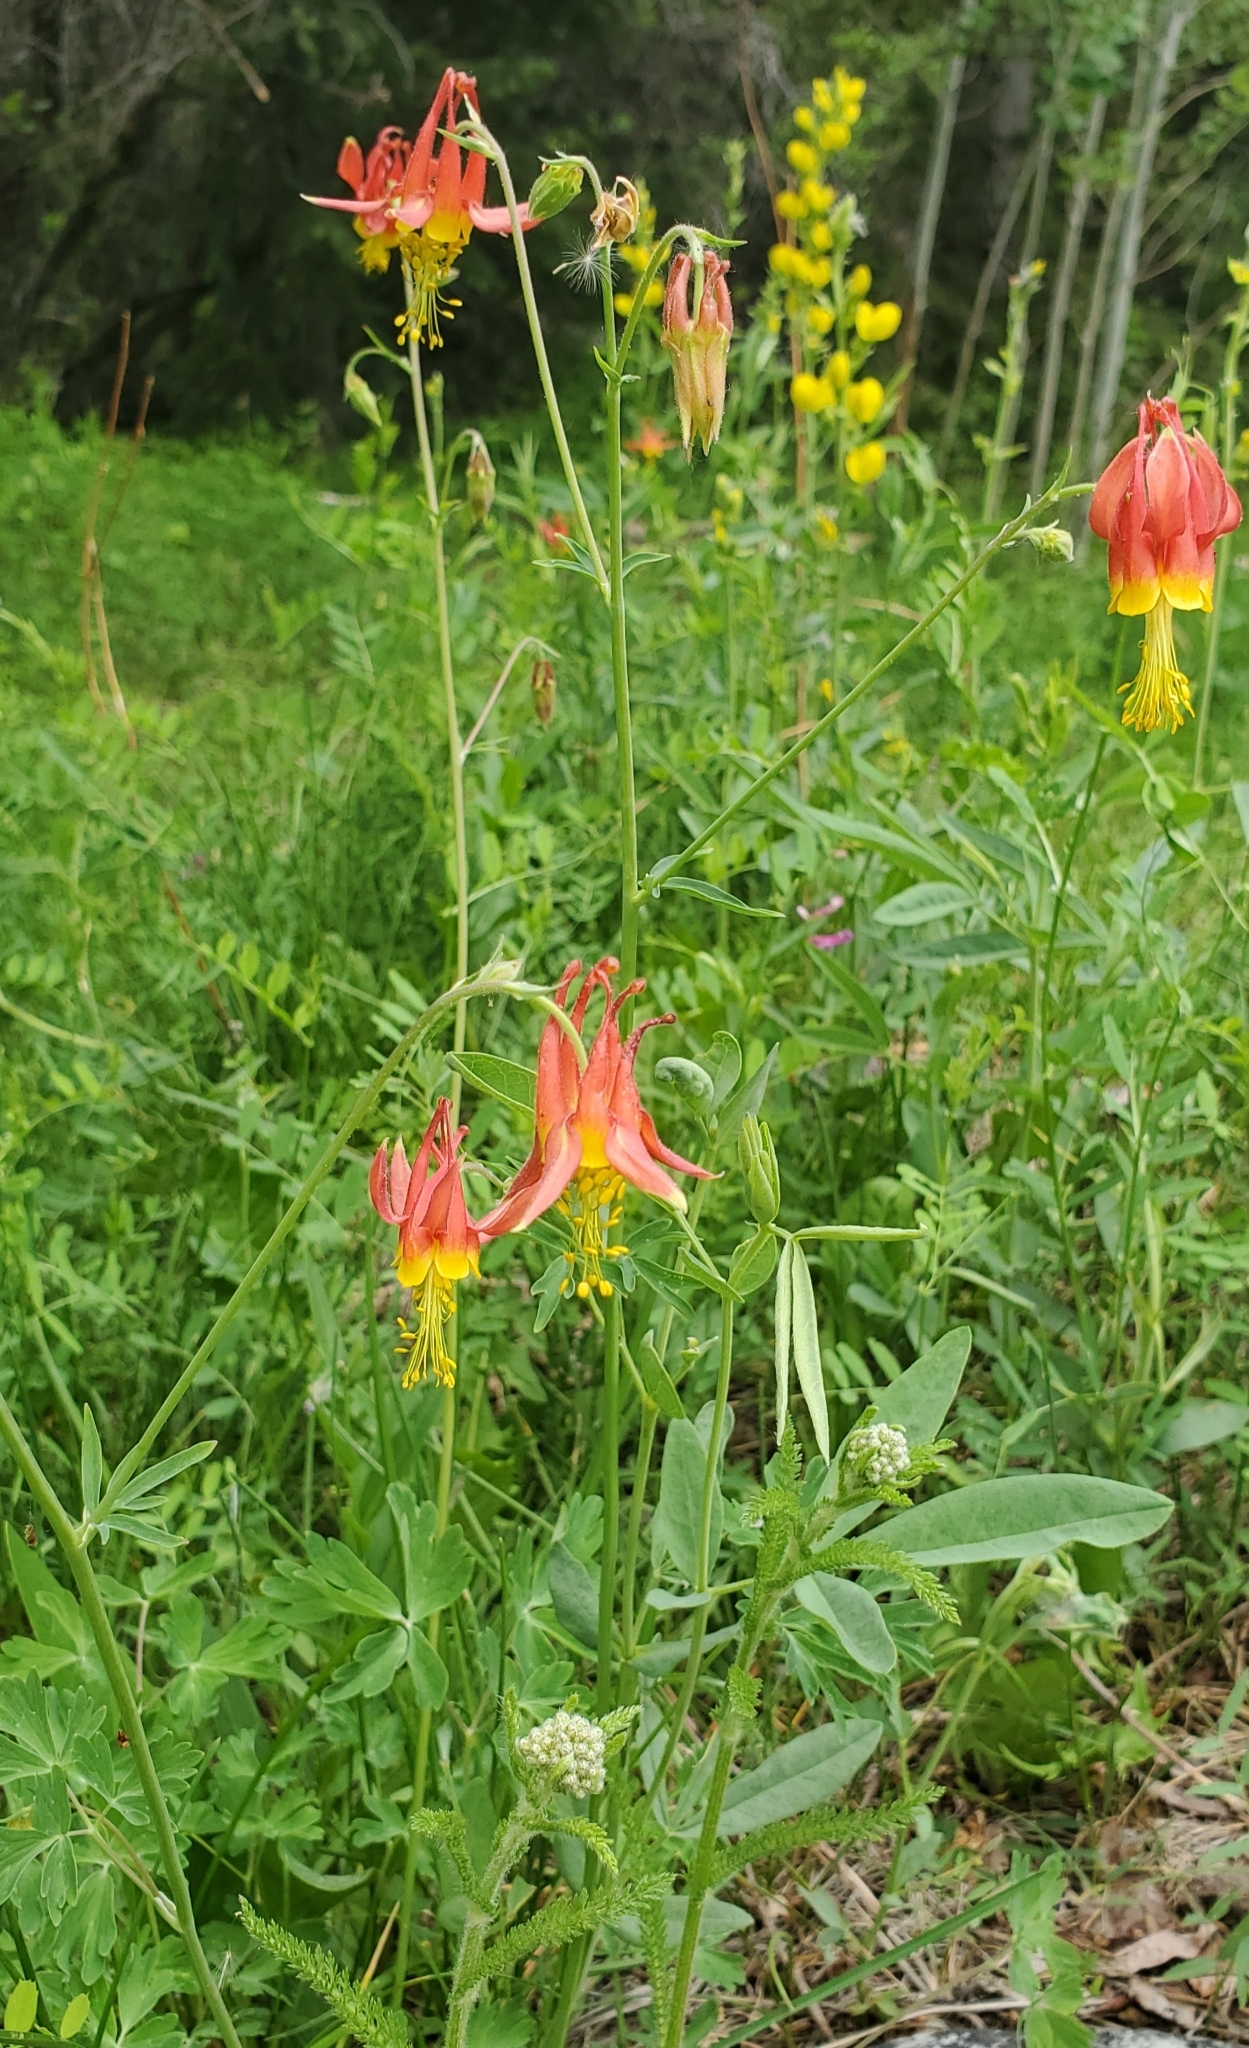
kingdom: Plantae
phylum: Tracheophyta
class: Magnoliopsida
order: Ranunculales
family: Ranunculaceae
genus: Aquilegia
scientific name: Aquilegia formosa
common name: Sitka columbine
